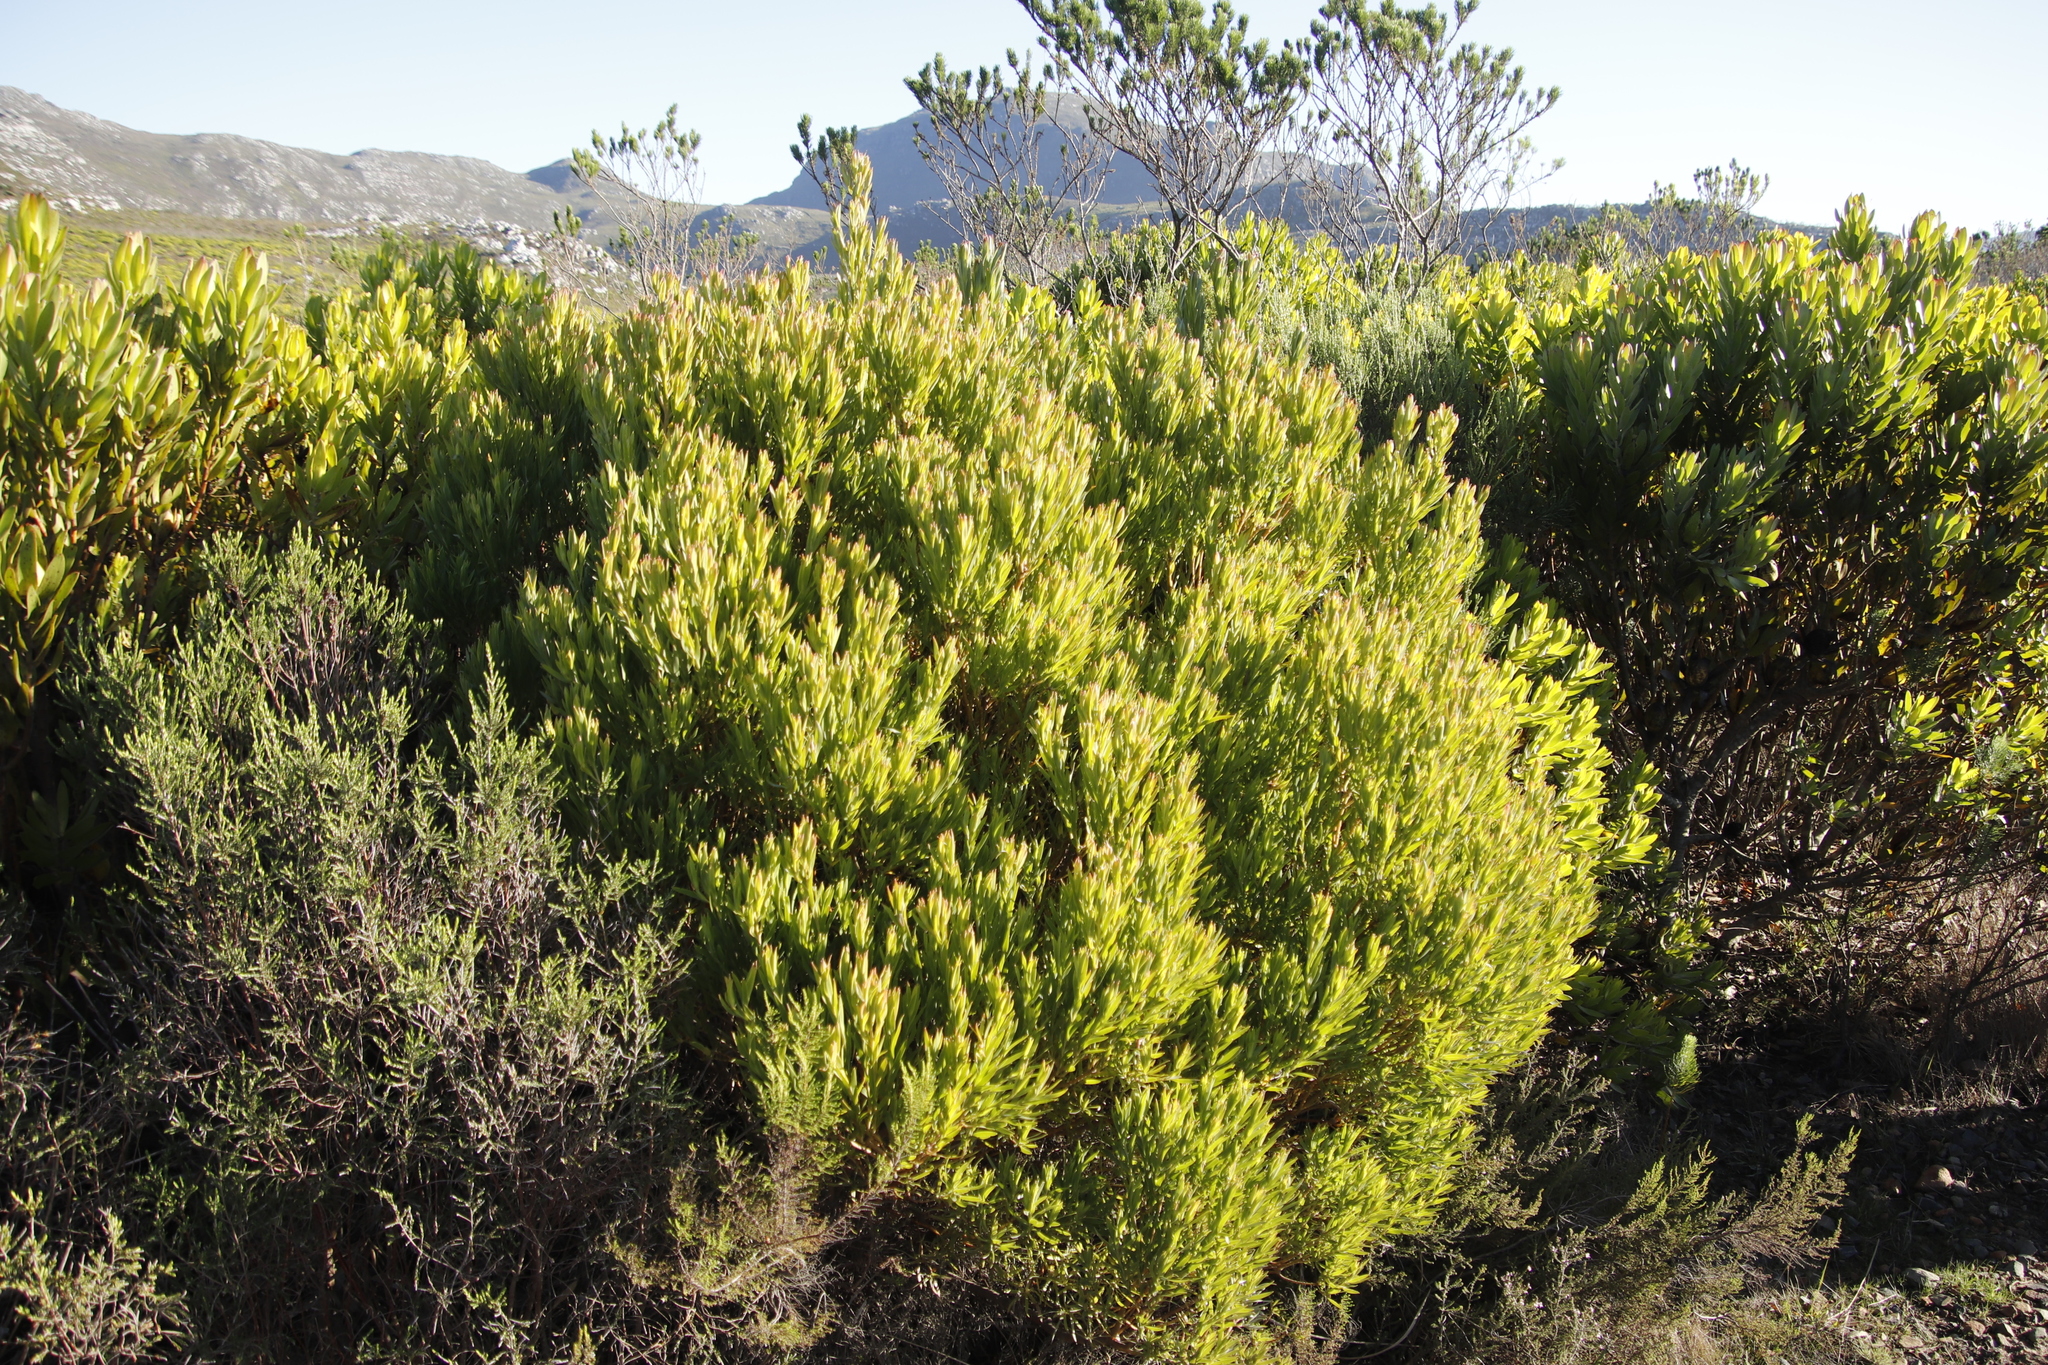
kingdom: Plantae
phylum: Tracheophyta
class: Magnoliopsida
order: Proteales
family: Proteaceae
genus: Leucadendron
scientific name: Leucadendron xanthoconus
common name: Sickle-leaf conebush
